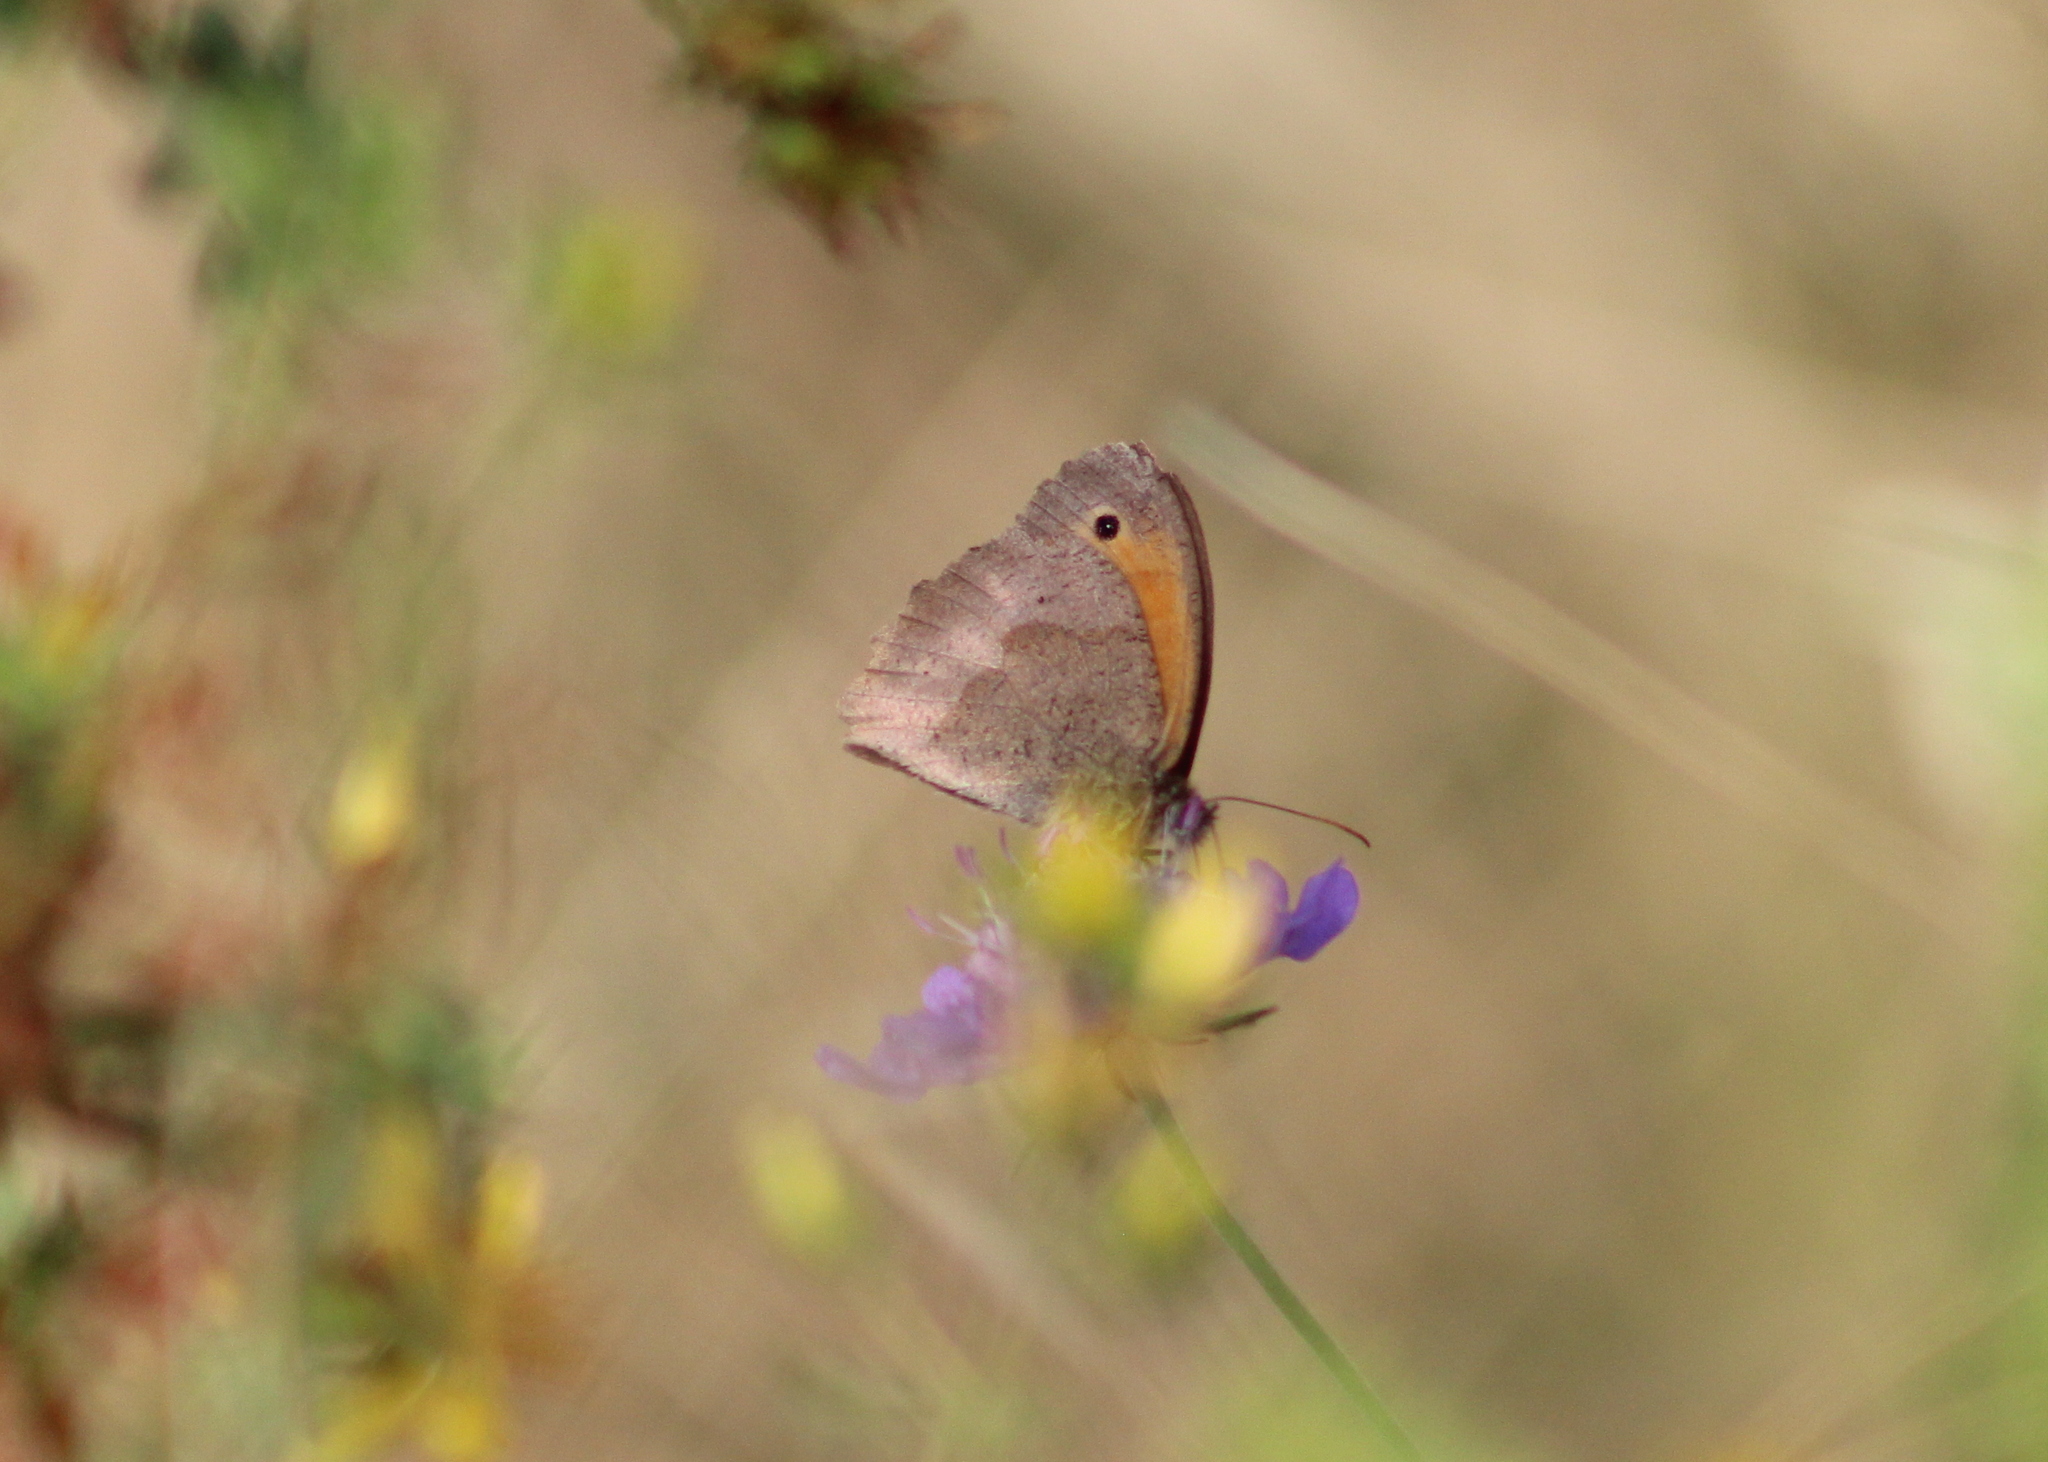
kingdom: Animalia
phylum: Arthropoda
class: Insecta
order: Lepidoptera
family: Nymphalidae
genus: Maniola
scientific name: Maniola jurtina
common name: Meadow brown
